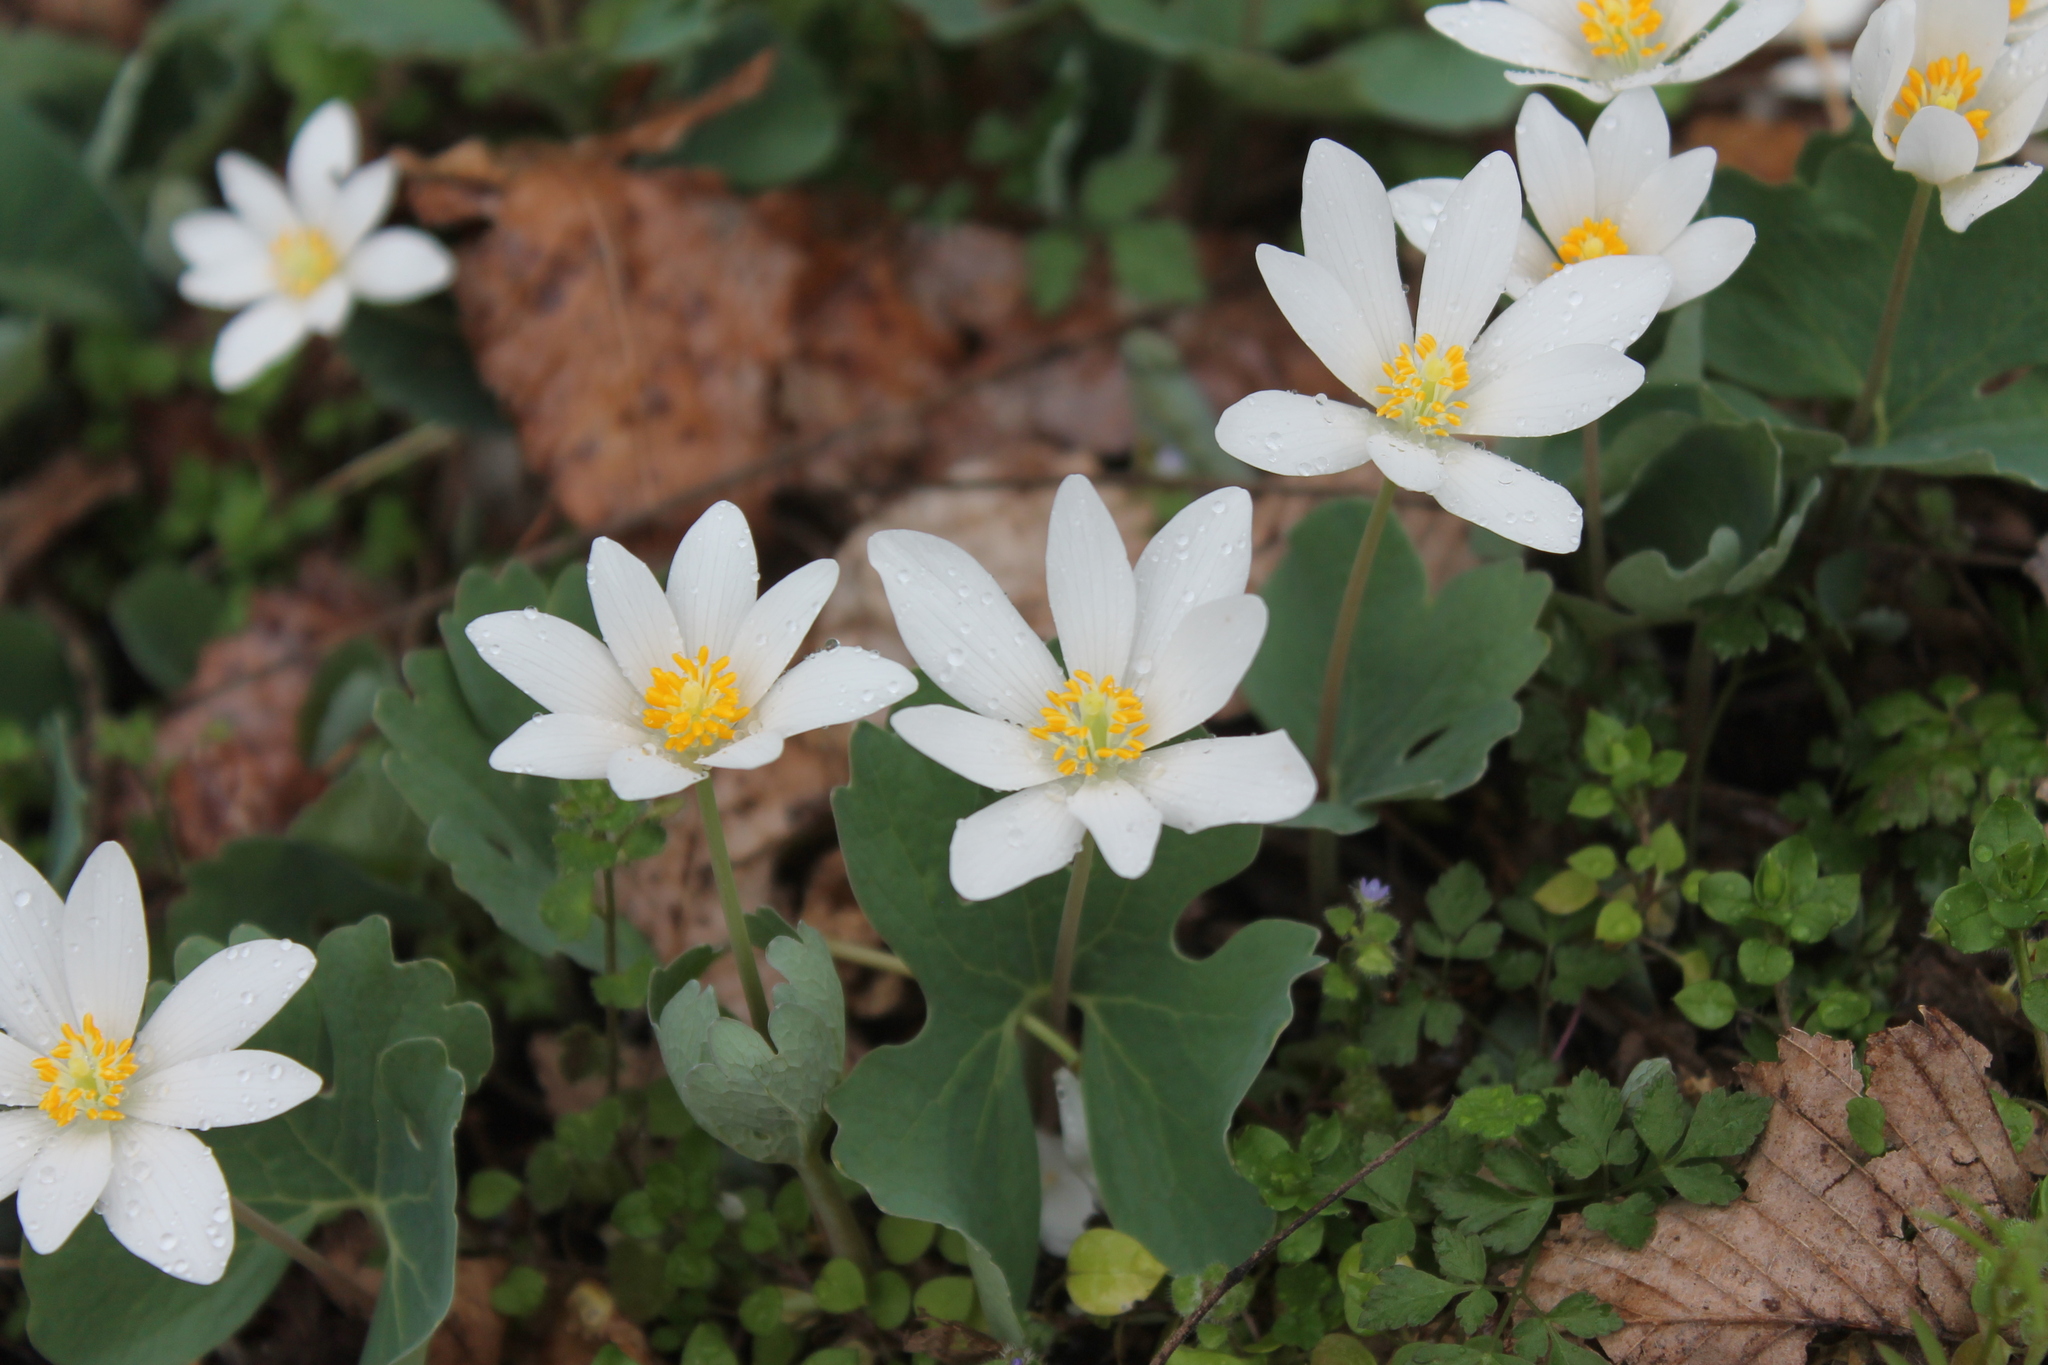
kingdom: Plantae
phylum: Tracheophyta
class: Magnoliopsida
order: Ranunculales
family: Papaveraceae
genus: Sanguinaria
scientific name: Sanguinaria canadensis
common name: Bloodroot
